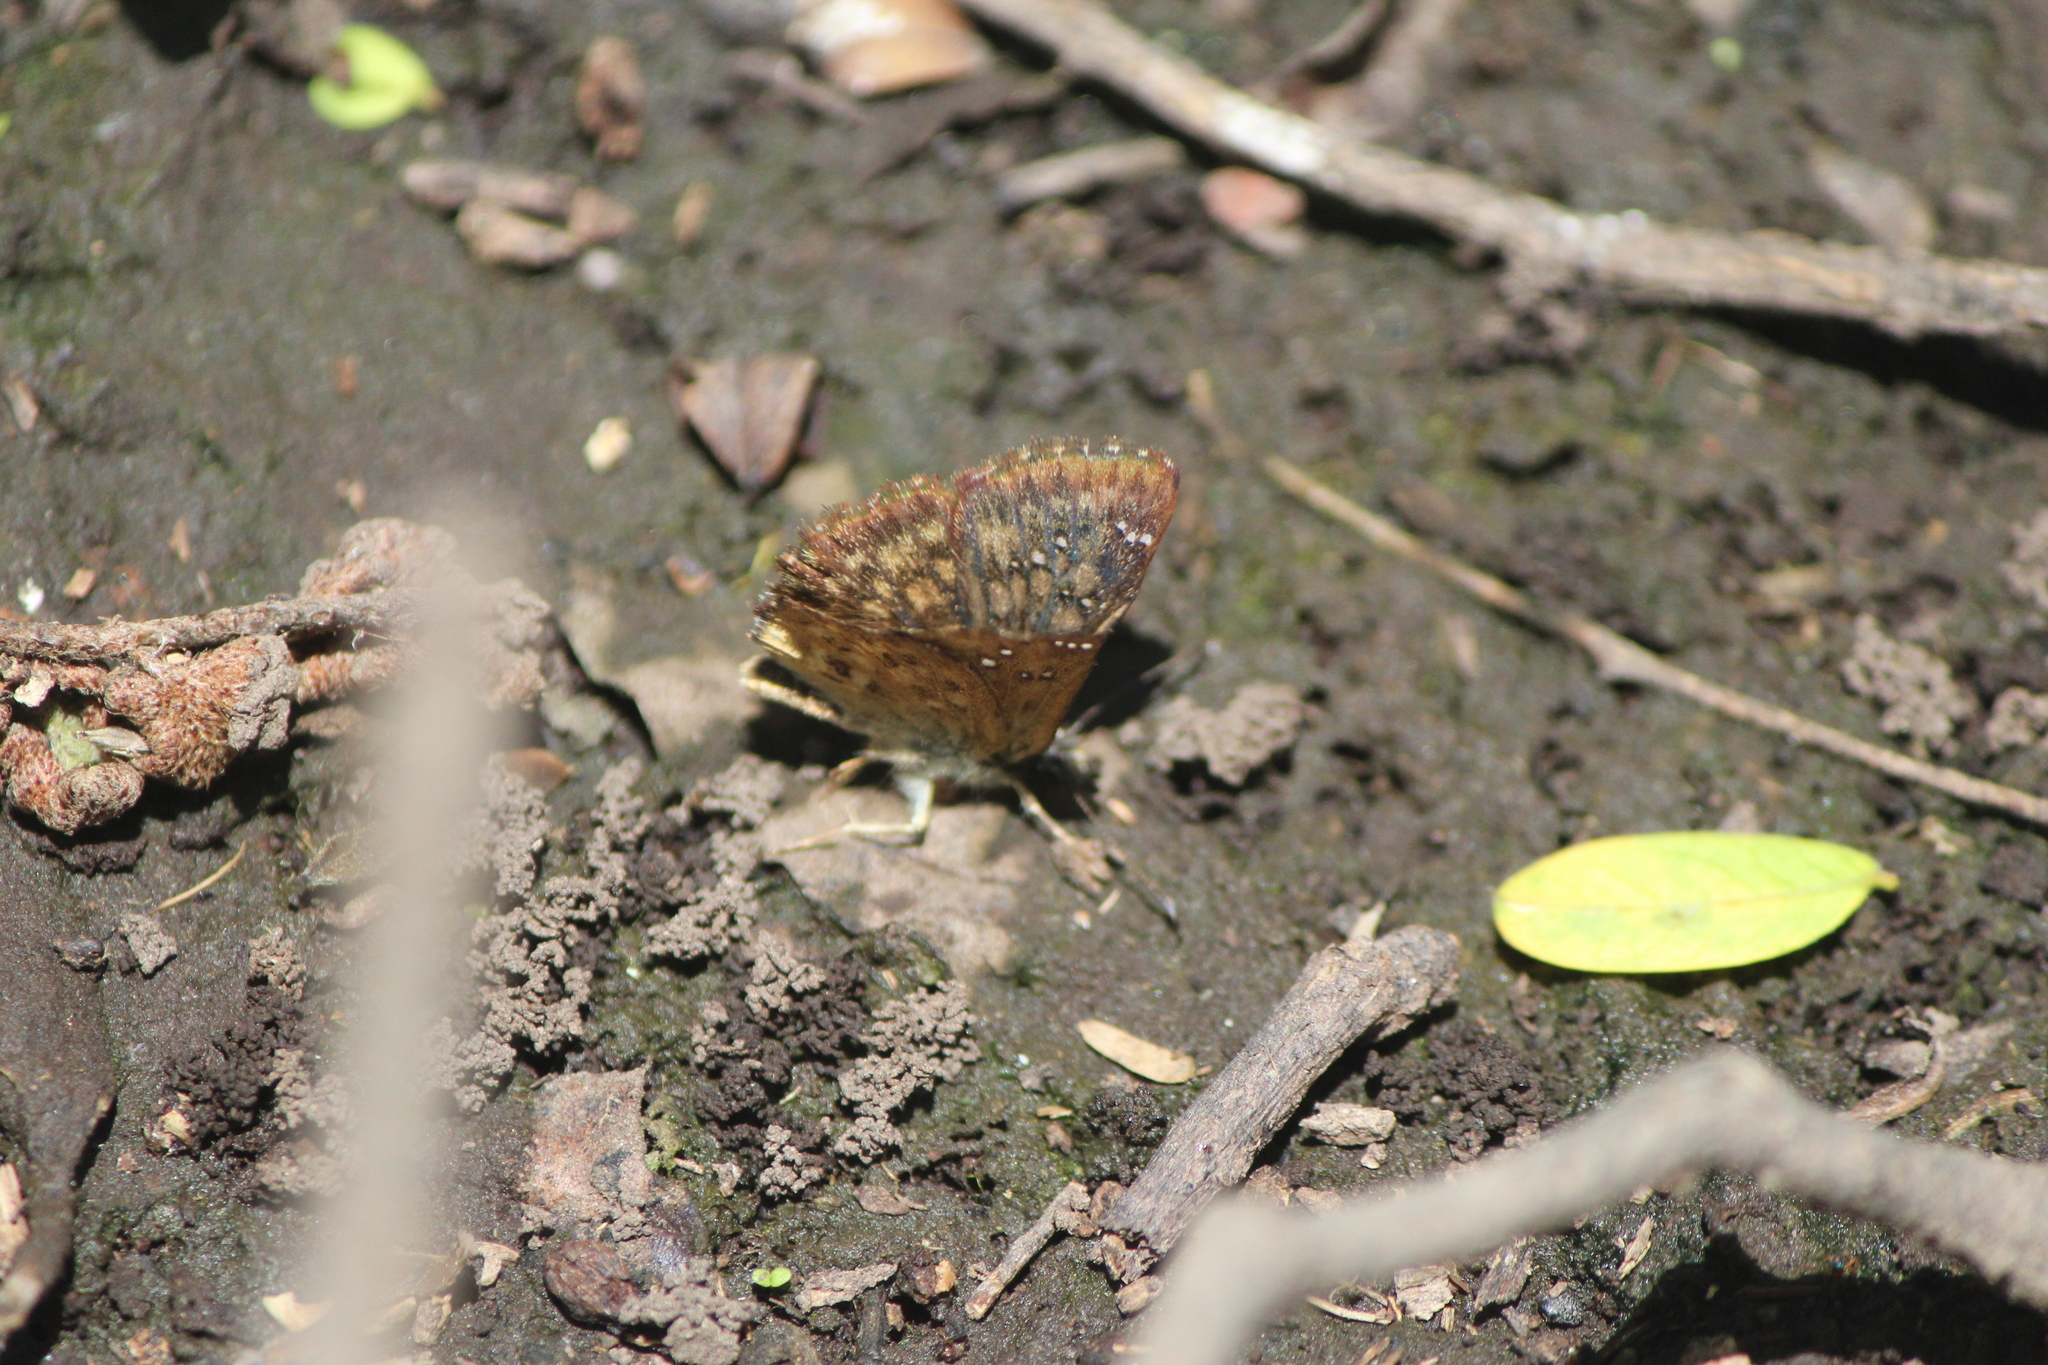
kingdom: Animalia
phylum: Arthropoda
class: Insecta
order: Lepidoptera
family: Hesperiidae
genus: Staphylus
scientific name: Staphylus tepeca
